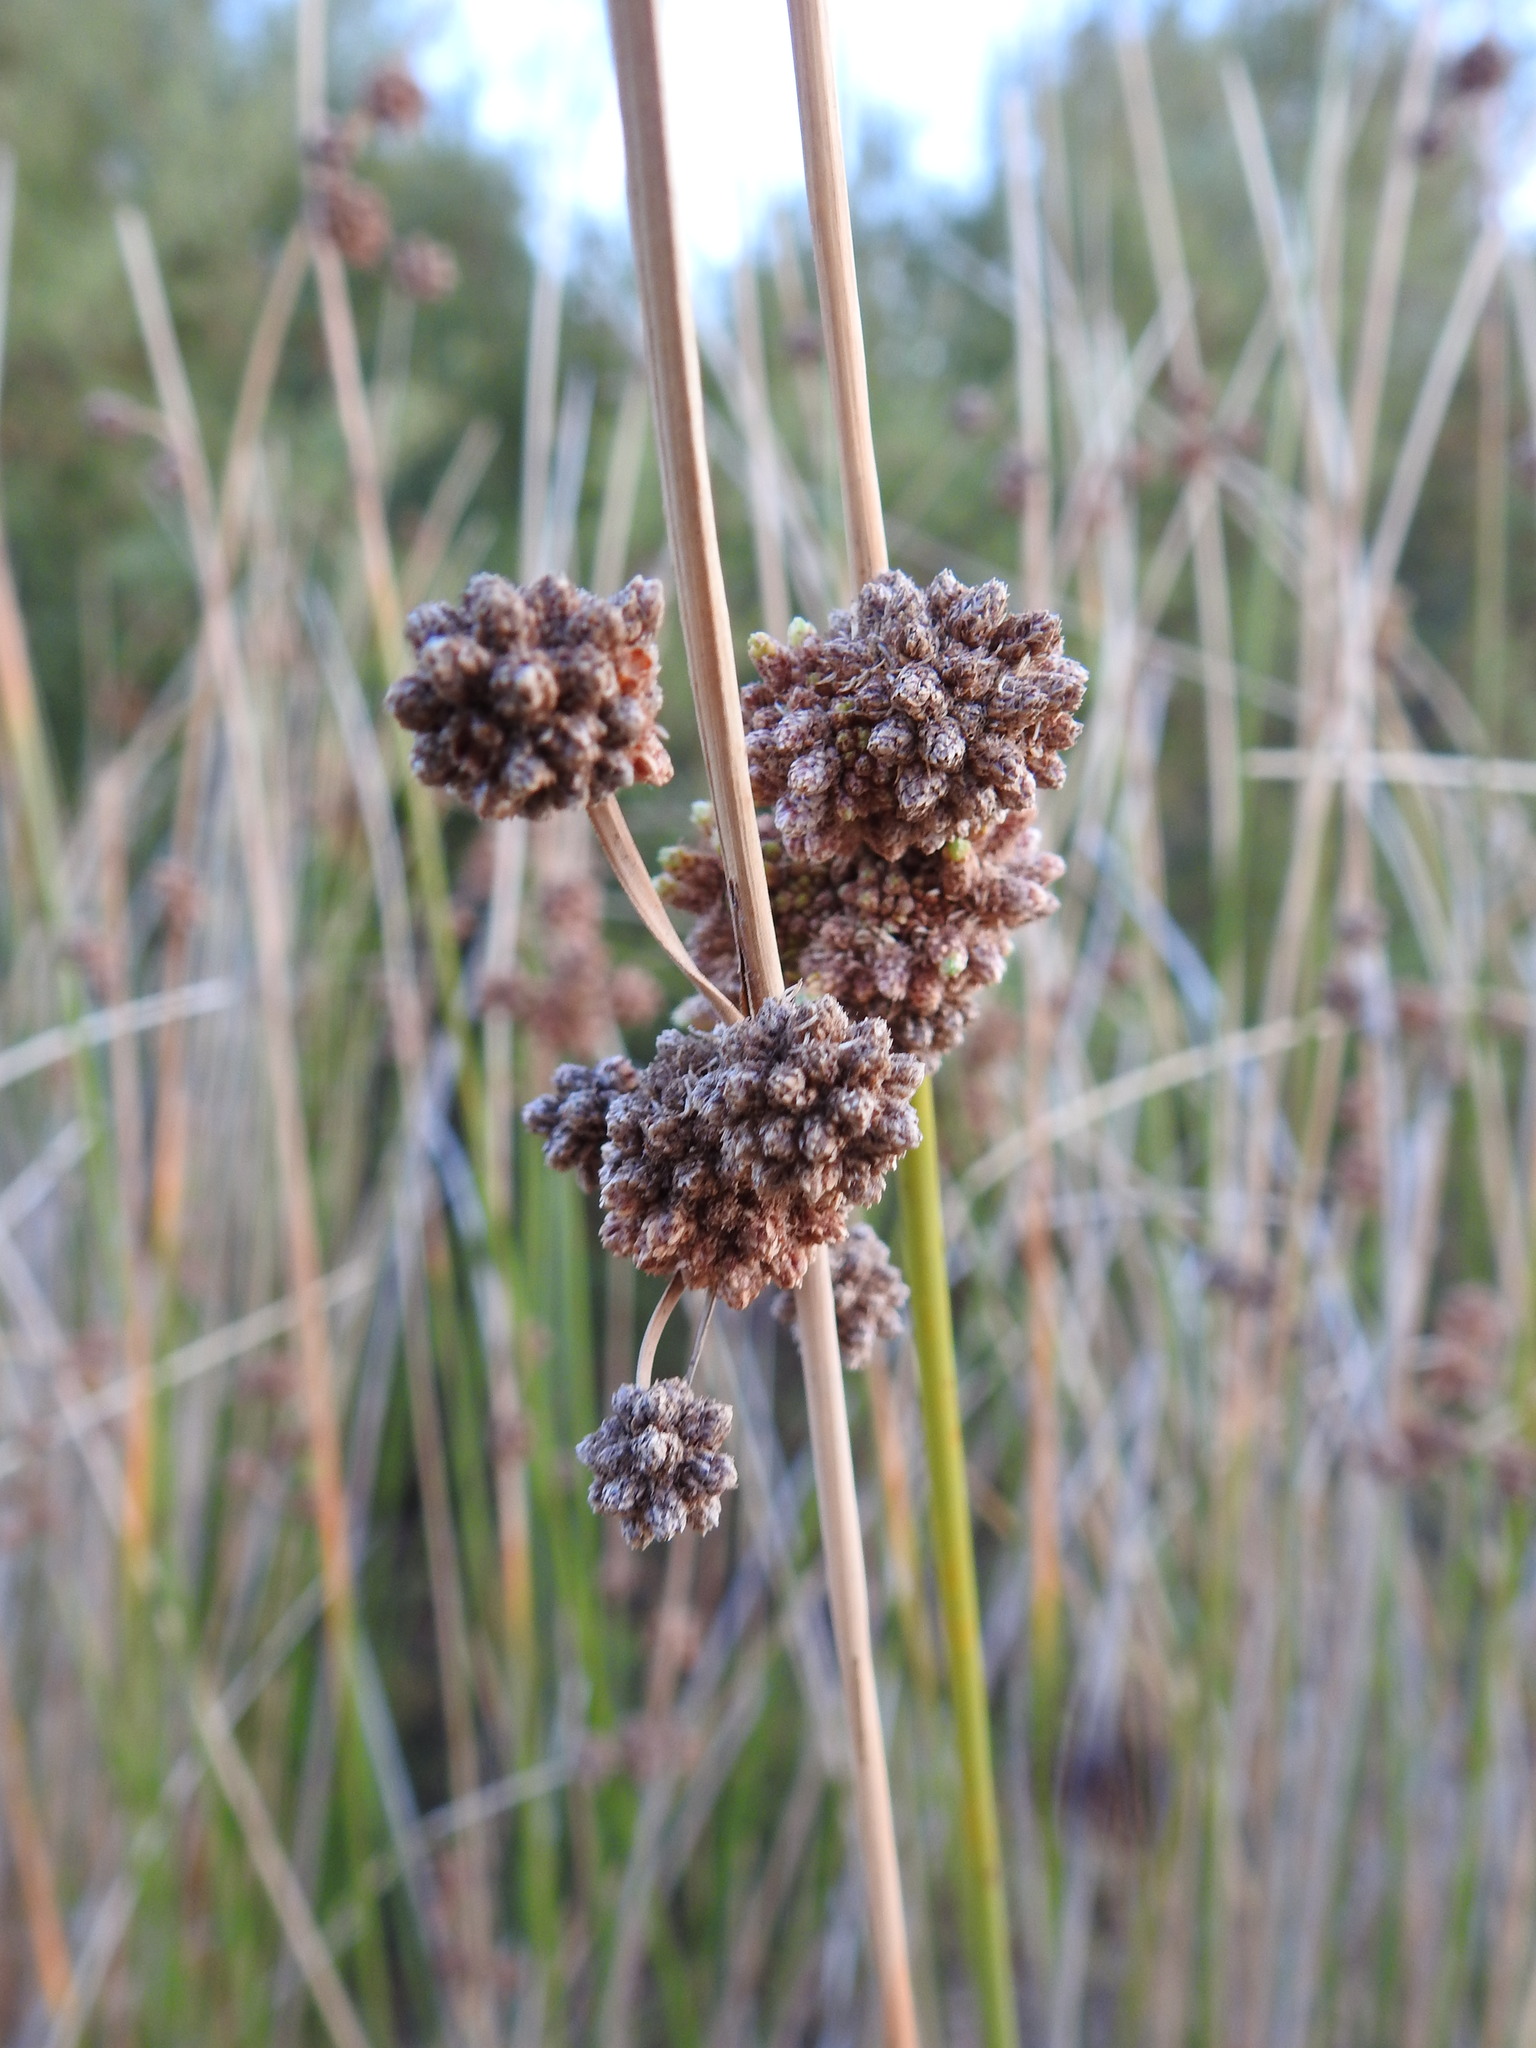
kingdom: Plantae
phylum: Tracheophyta
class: Liliopsida
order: Poales
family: Cyperaceae
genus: Scirpoides
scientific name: Scirpoides holoschoenus
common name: Round-headed club-rush
